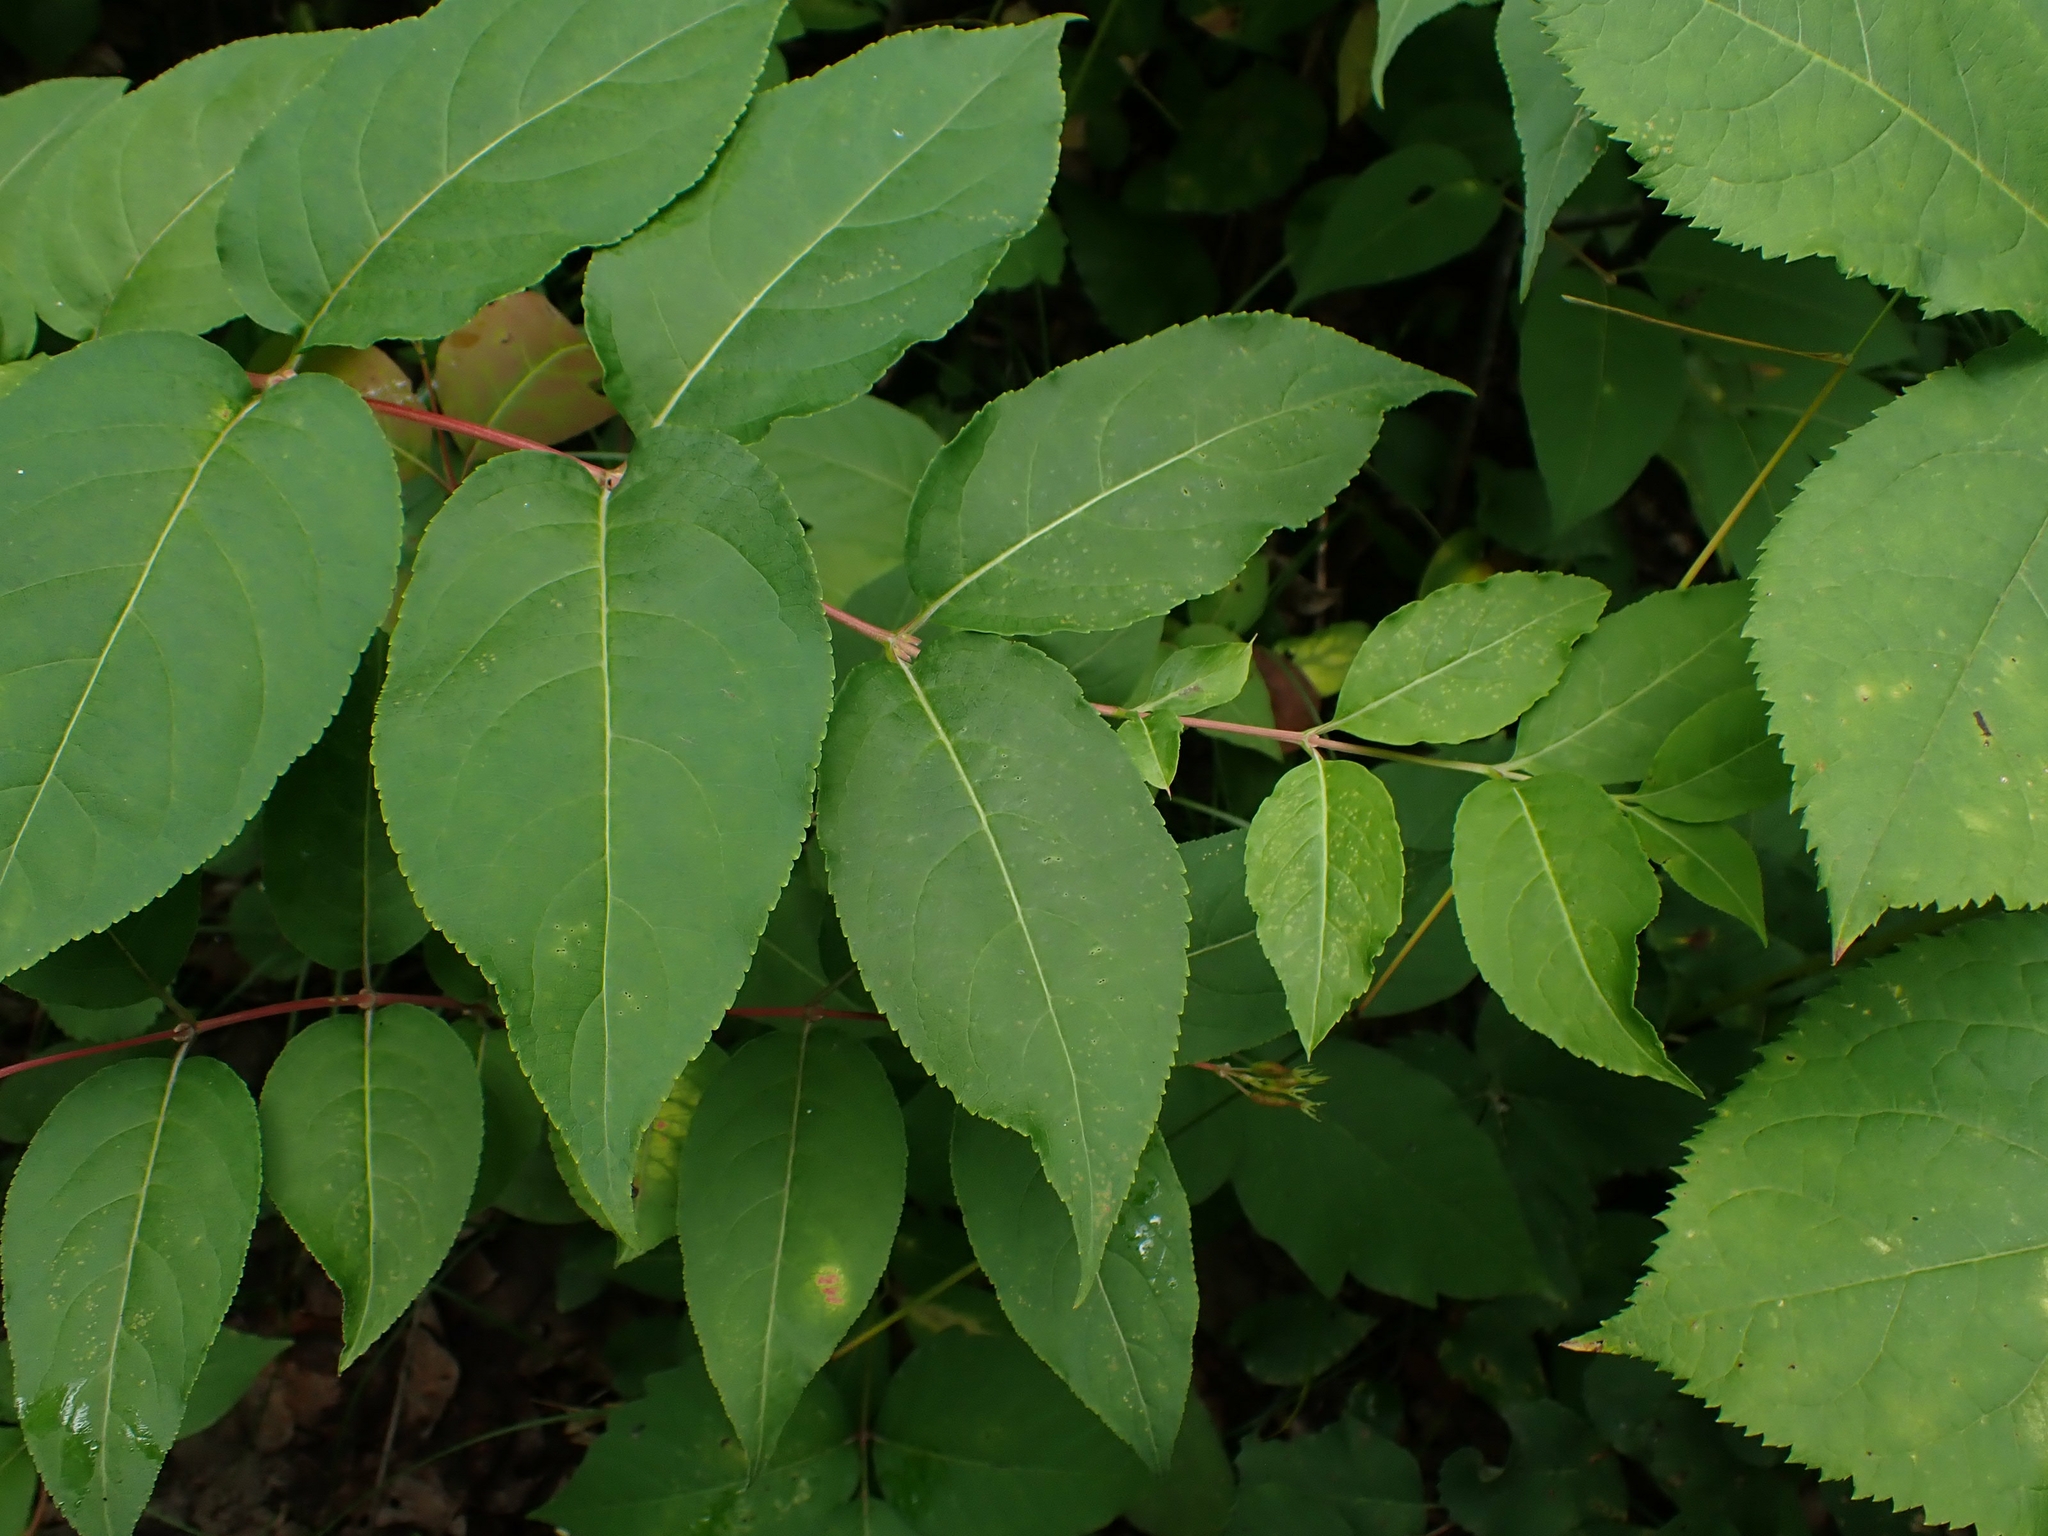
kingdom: Plantae
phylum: Tracheophyta
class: Magnoliopsida
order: Dipsacales
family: Caprifoliaceae
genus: Diervilla
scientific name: Diervilla lonicera
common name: Bush-honeysuckle
